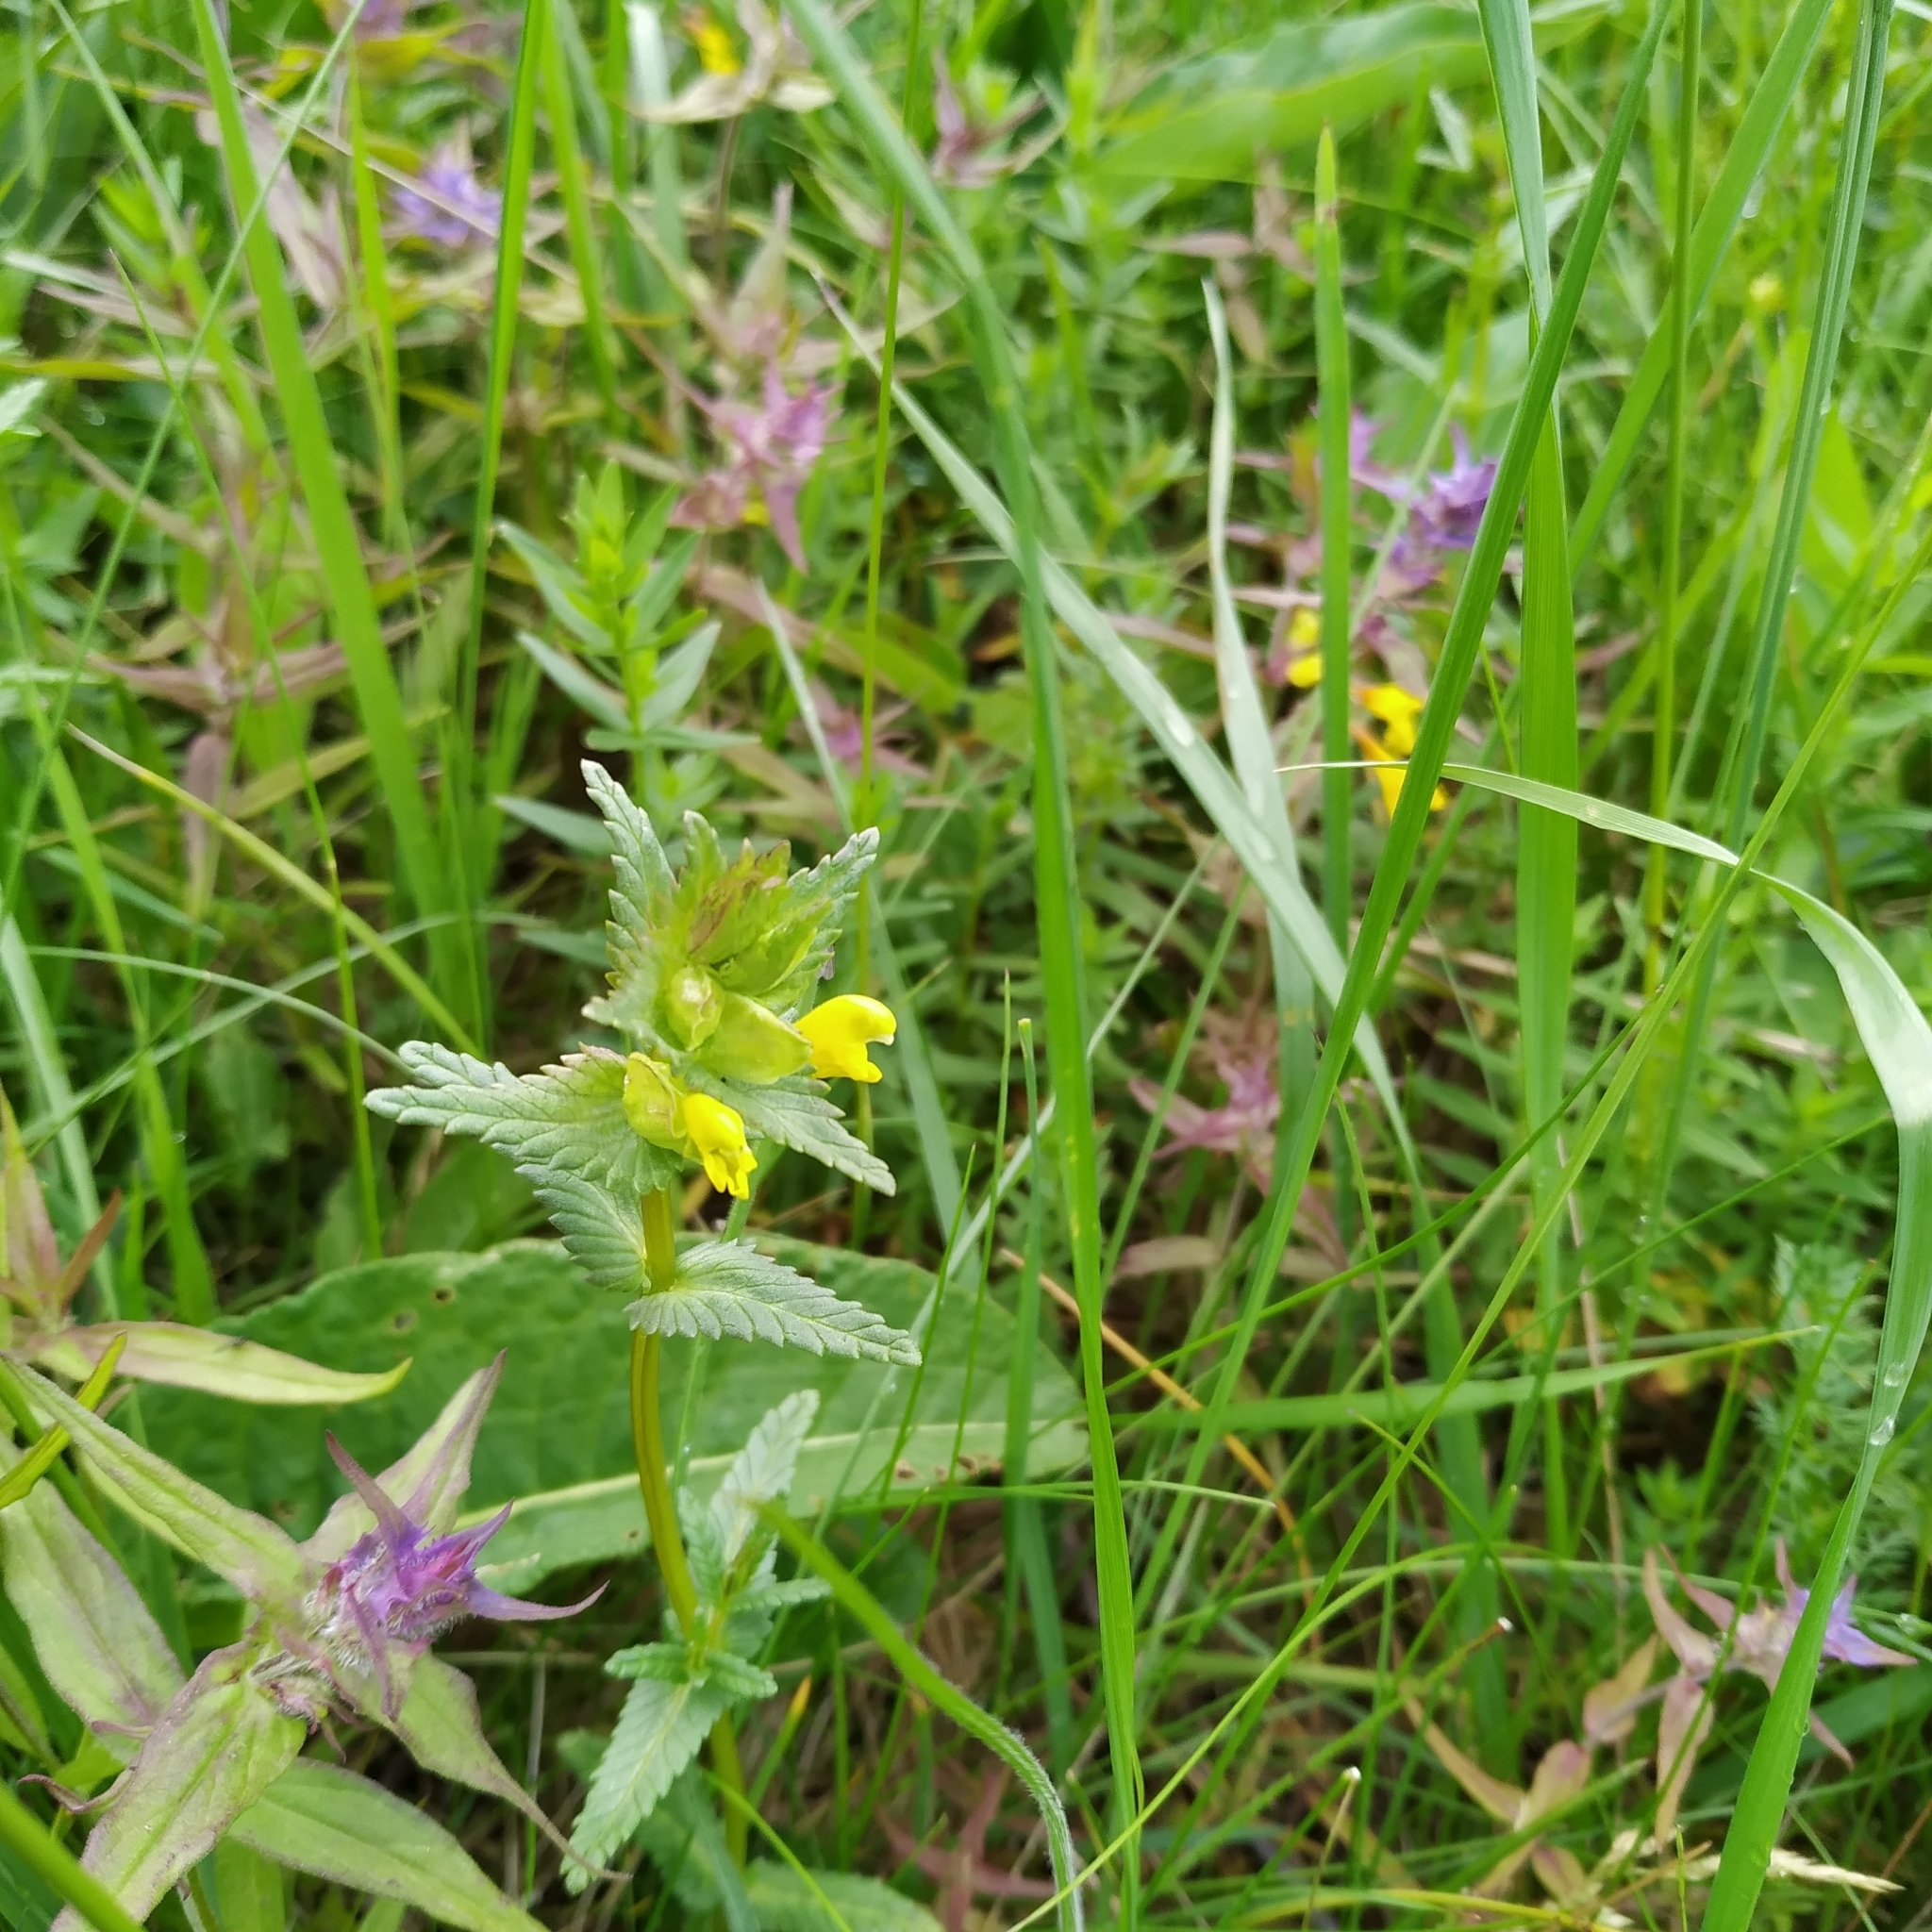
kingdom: Plantae
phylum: Tracheophyta
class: Magnoliopsida
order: Lamiales
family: Orobanchaceae
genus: Rhinanthus
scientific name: Rhinanthus minor
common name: Yellow-rattle
